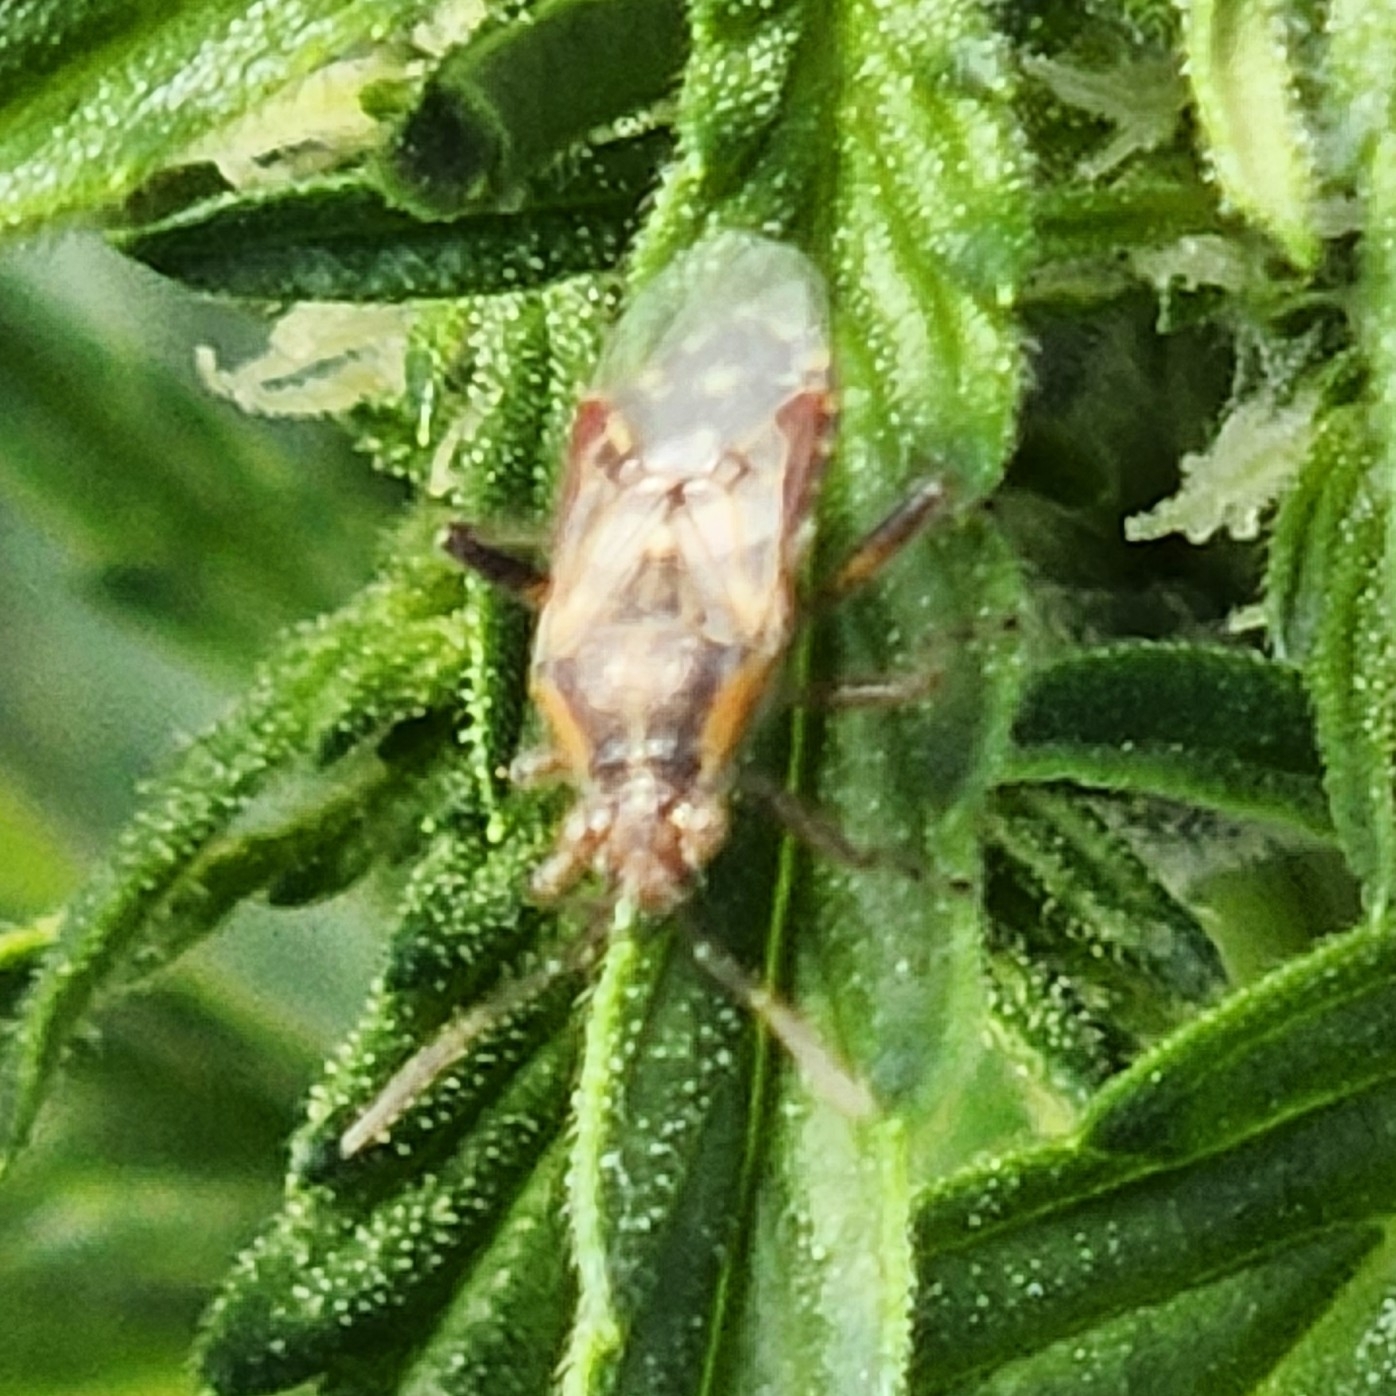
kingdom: Animalia
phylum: Arthropoda
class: Insecta
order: Hemiptera
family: Rhopalidae
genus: Liorhyssus
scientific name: Liorhyssus hyalinus
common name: Scentless plant bug
